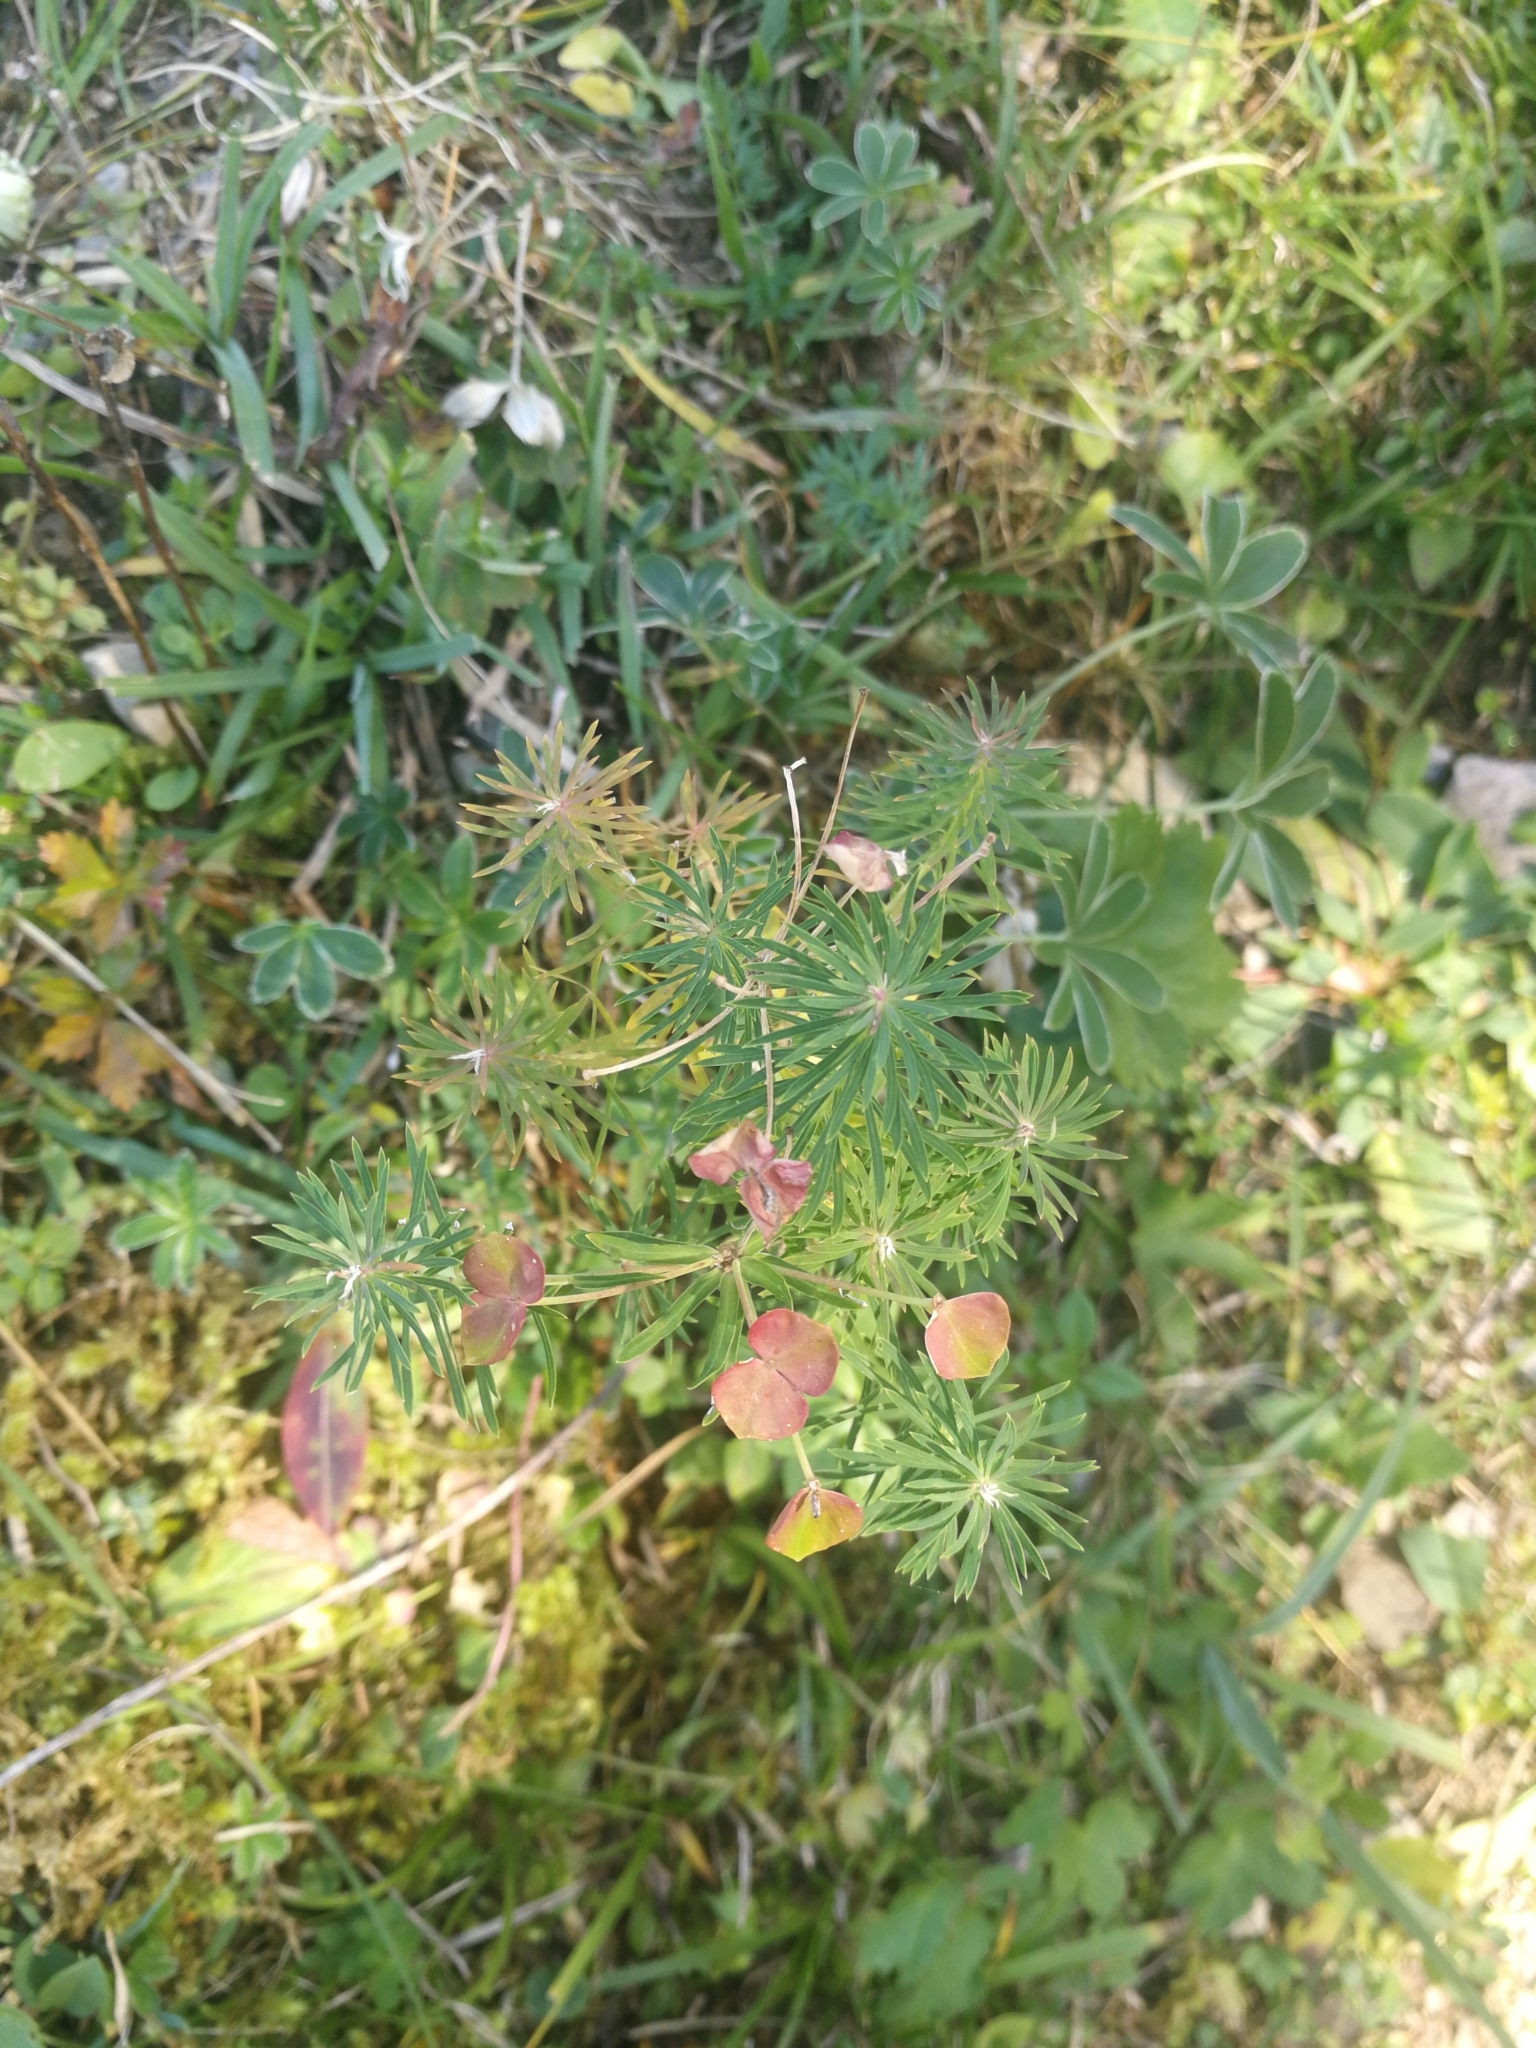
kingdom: Plantae
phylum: Tracheophyta
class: Magnoliopsida
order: Malpighiales
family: Euphorbiaceae
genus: Euphorbia
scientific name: Euphorbia cyparissias
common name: Cypress spurge
